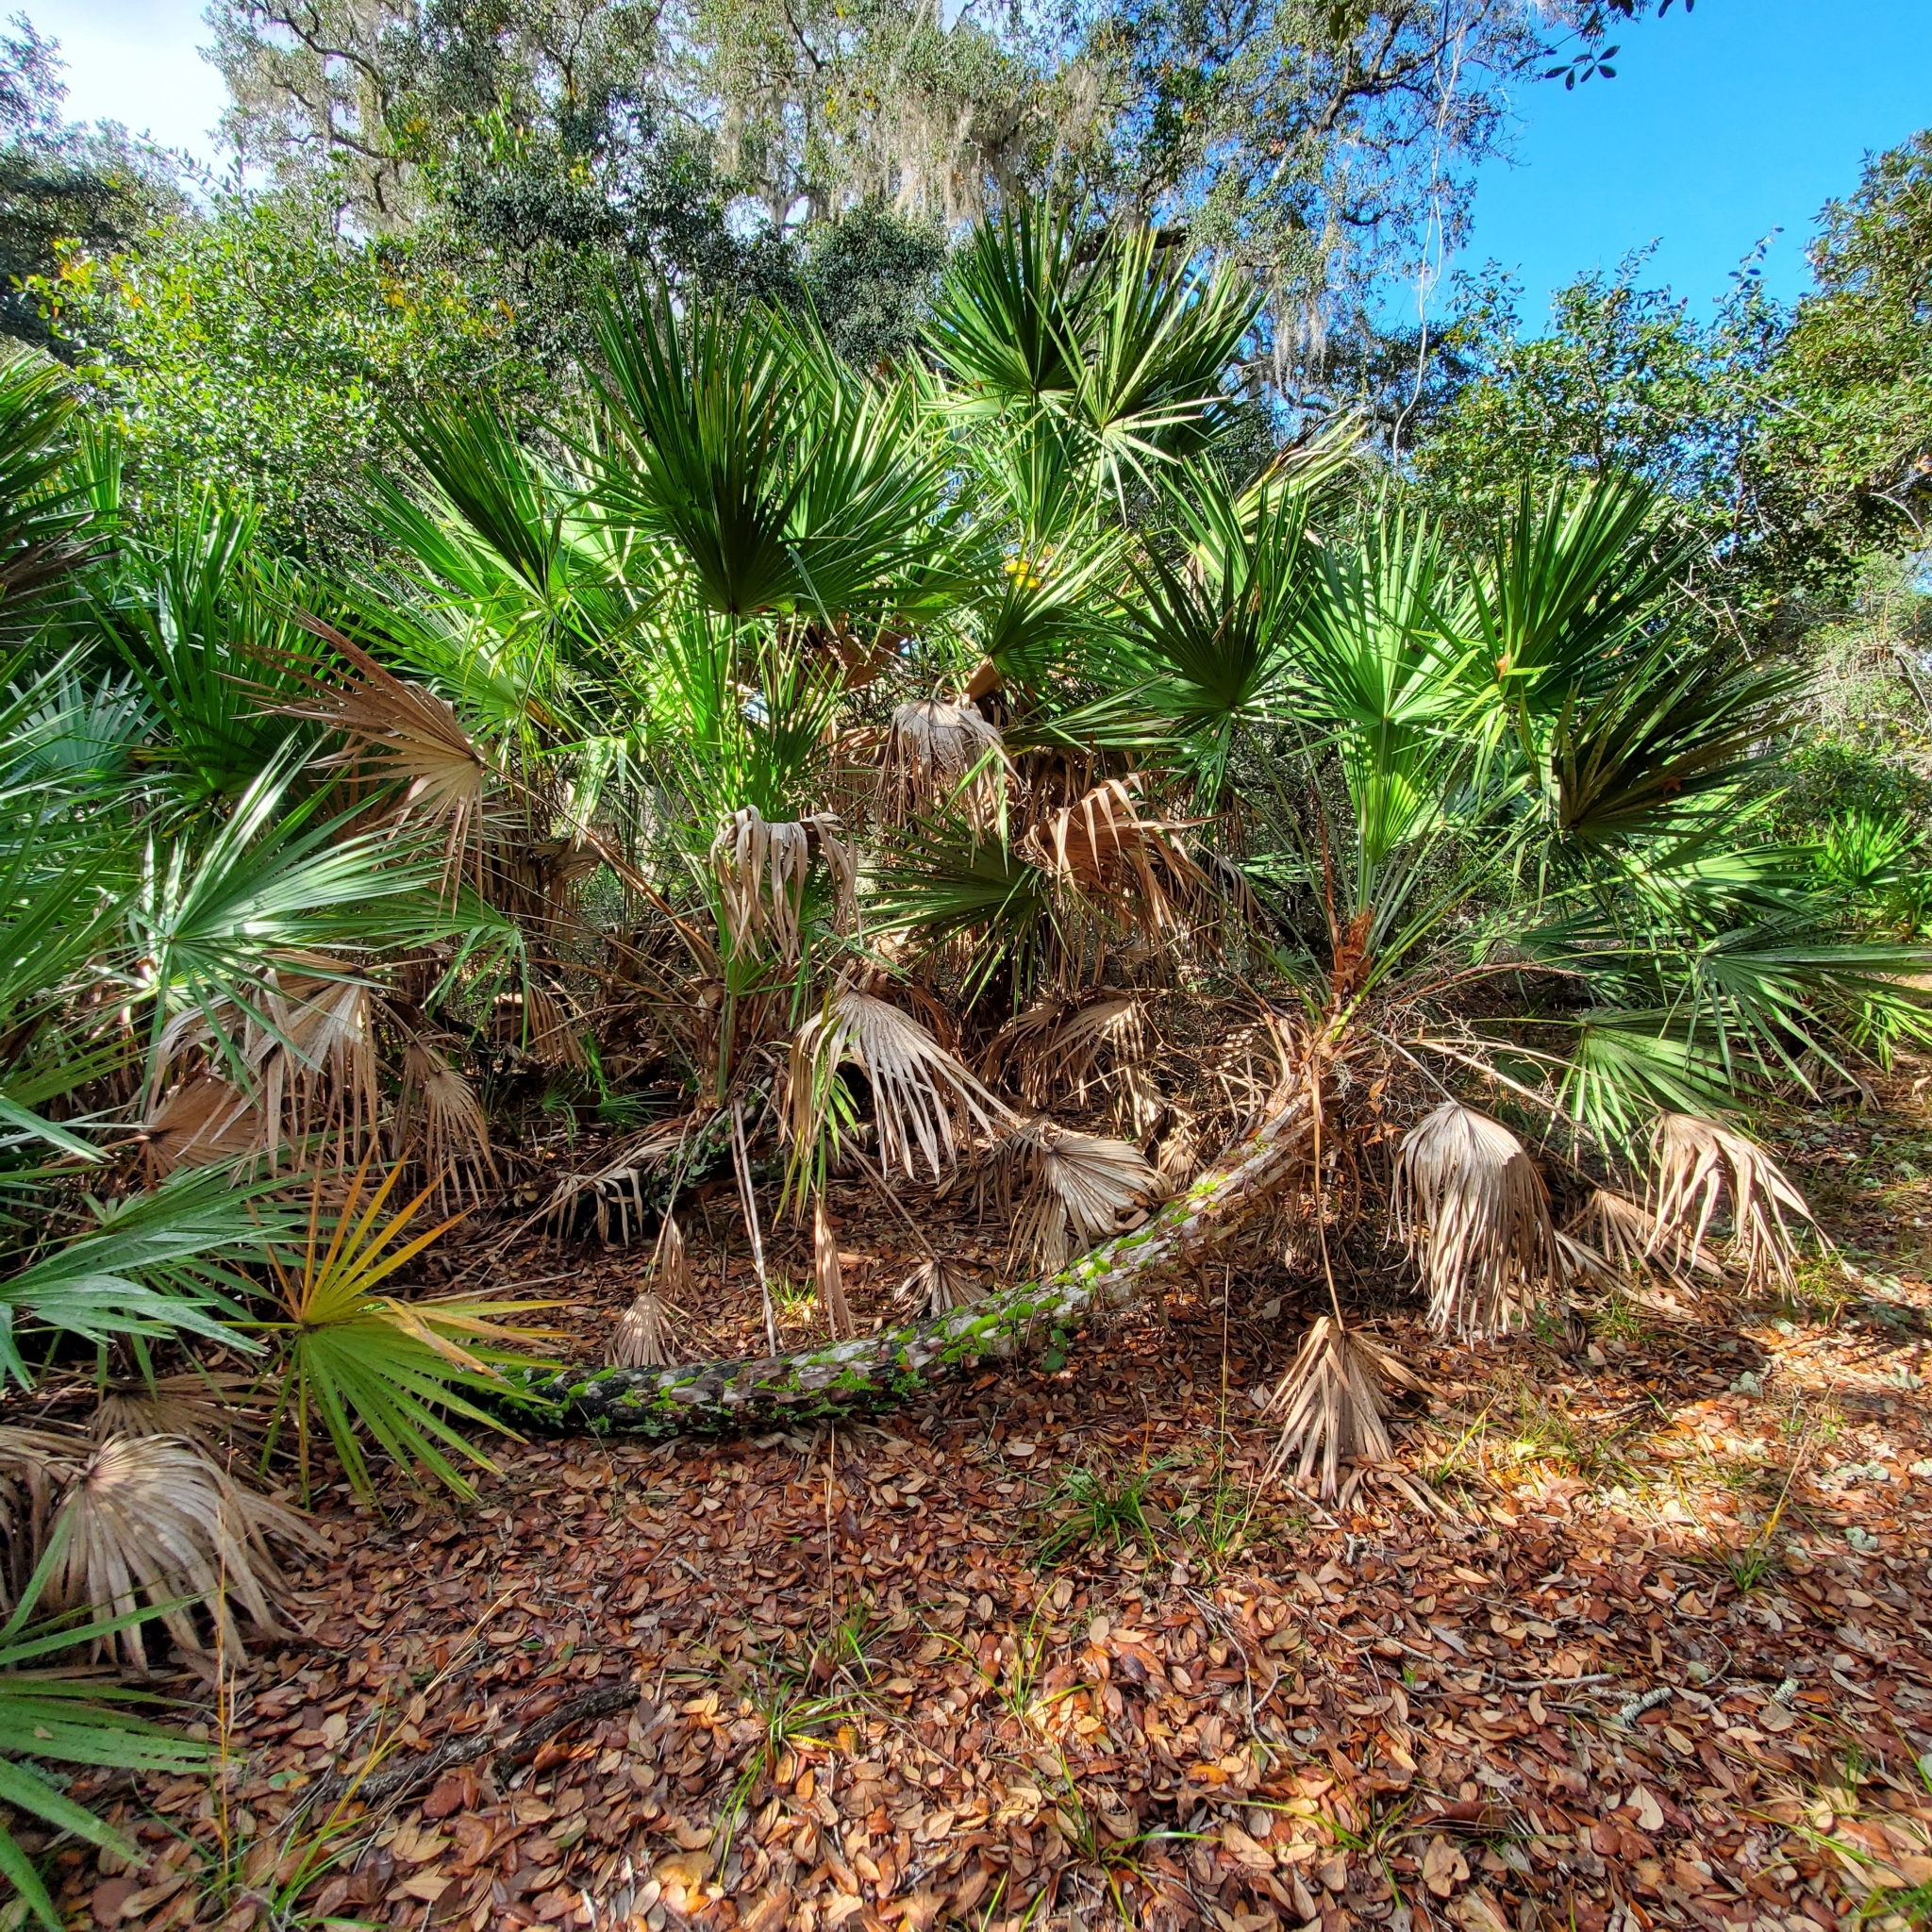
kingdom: Plantae
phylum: Tracheophyta
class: Liliopsida
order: Arecales
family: Arecaceae
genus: Serenoa
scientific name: Serenoa repens
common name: Saw-palmetto
